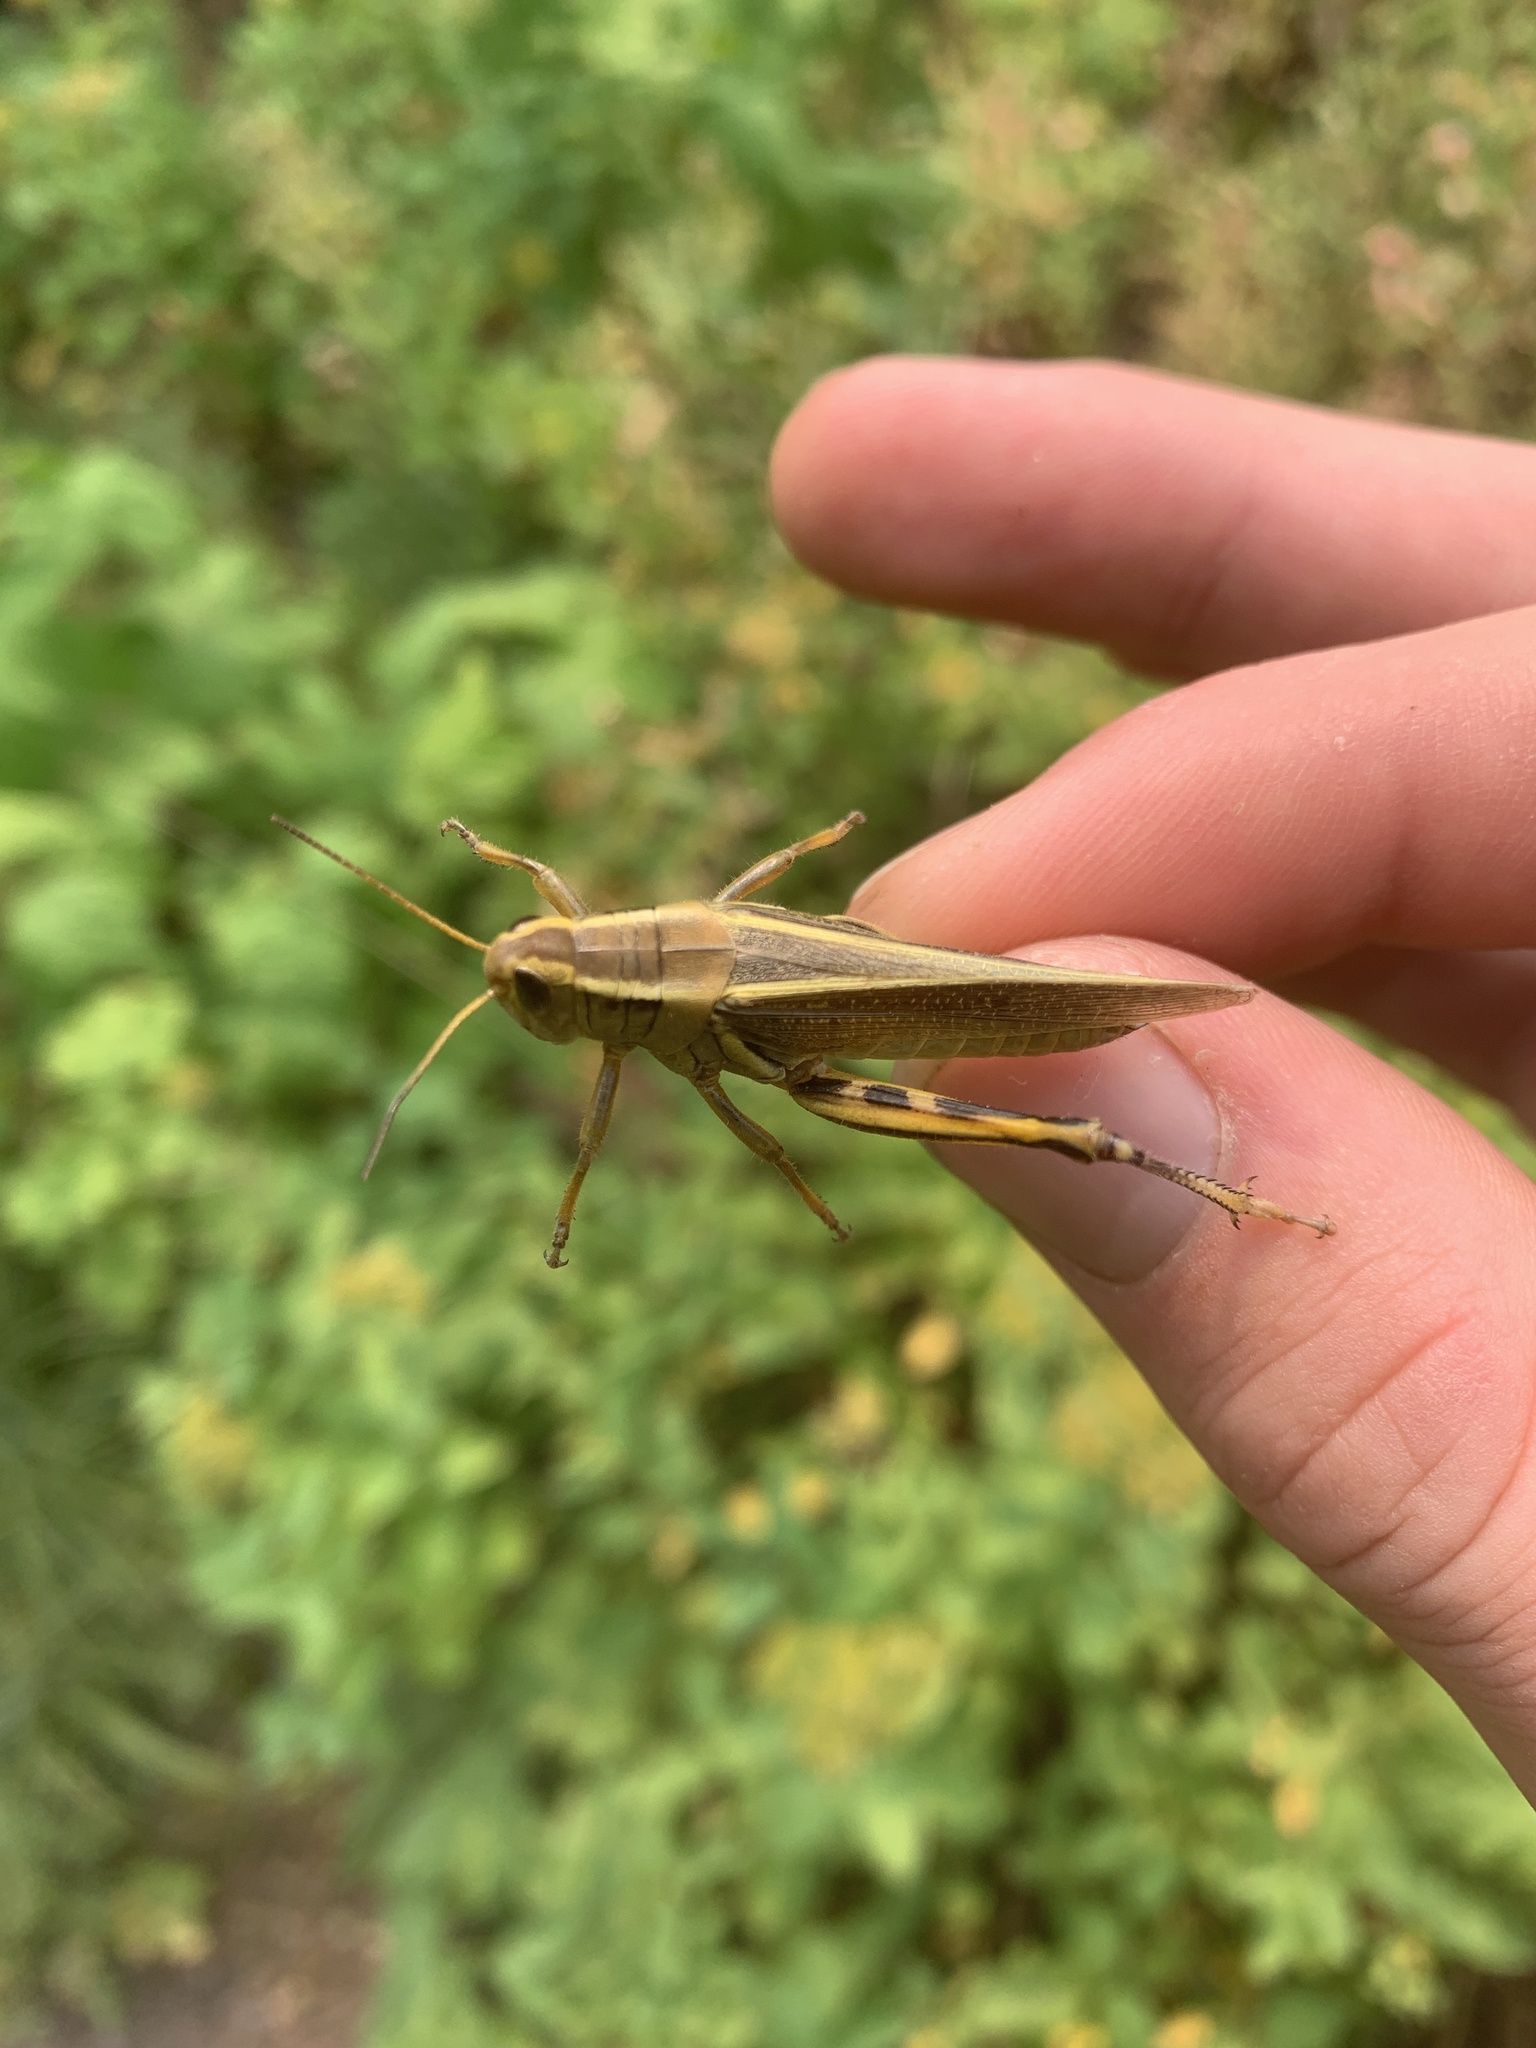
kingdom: Animalia
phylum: Arthropoda
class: Insecta
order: Orthoptera
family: Acrididae
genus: Melanoplus
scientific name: Melanoplus bivittatus
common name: Two-striped grasshopper
